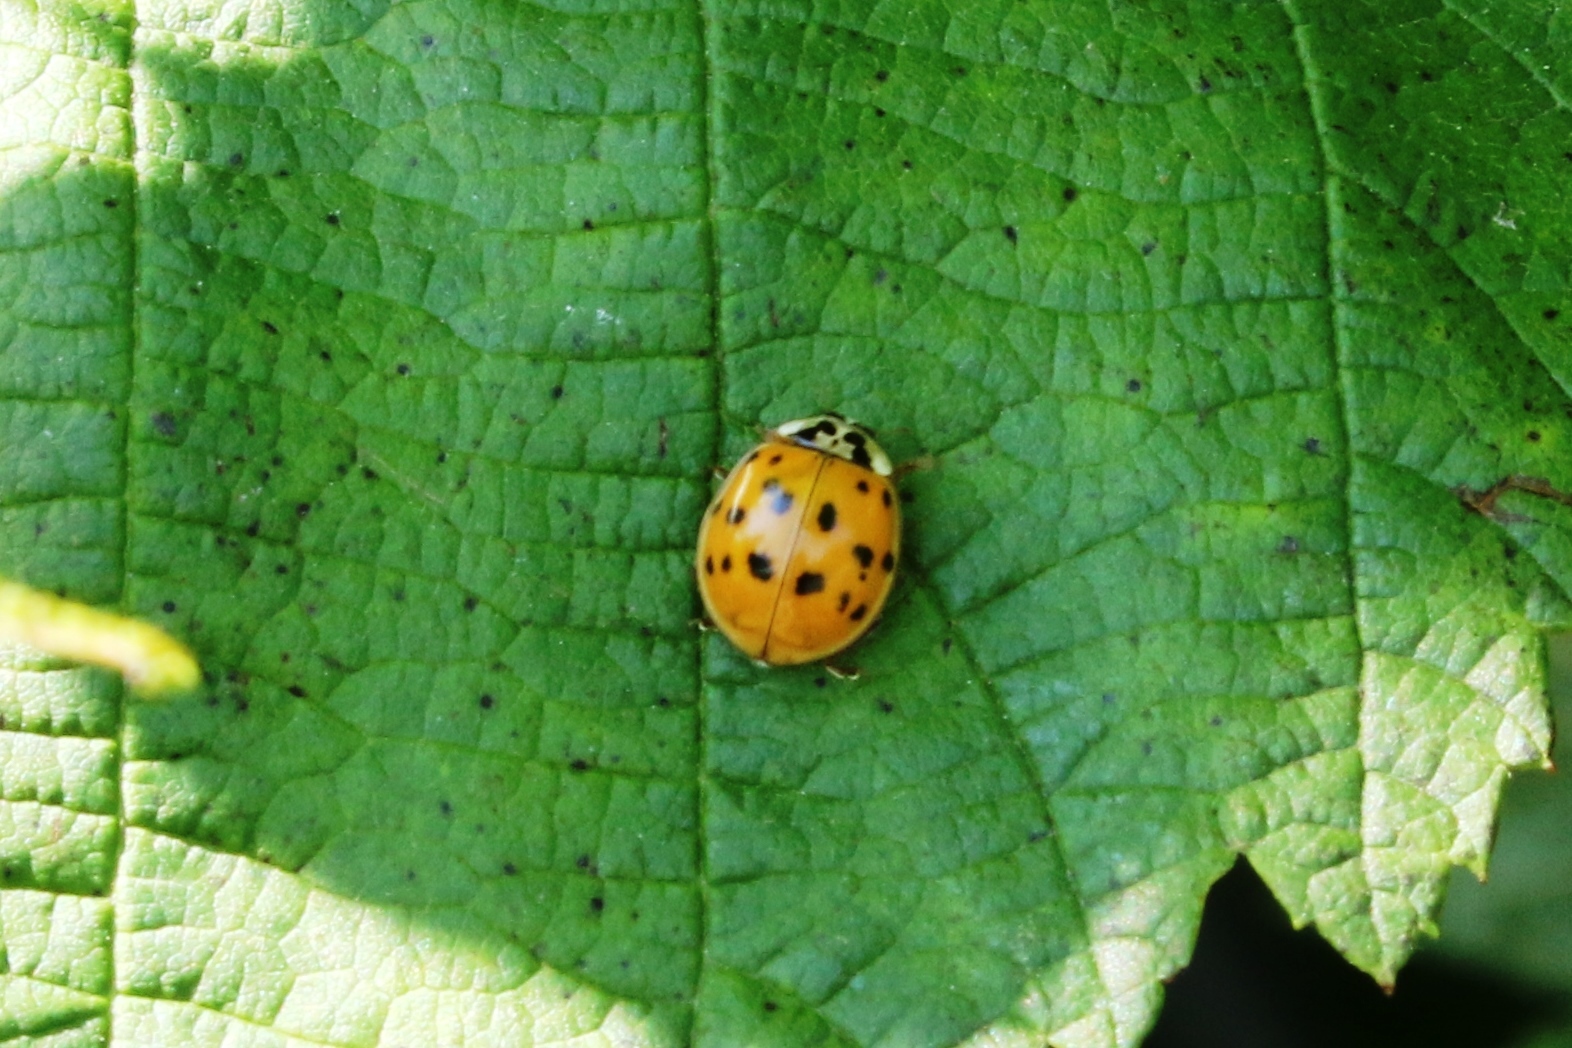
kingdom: Animalia
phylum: Arthropoda
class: Insecta
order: Coleoptera
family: Coccinellidae
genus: Harmonia
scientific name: Harmonia axyridis
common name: Harlequin ladybird
